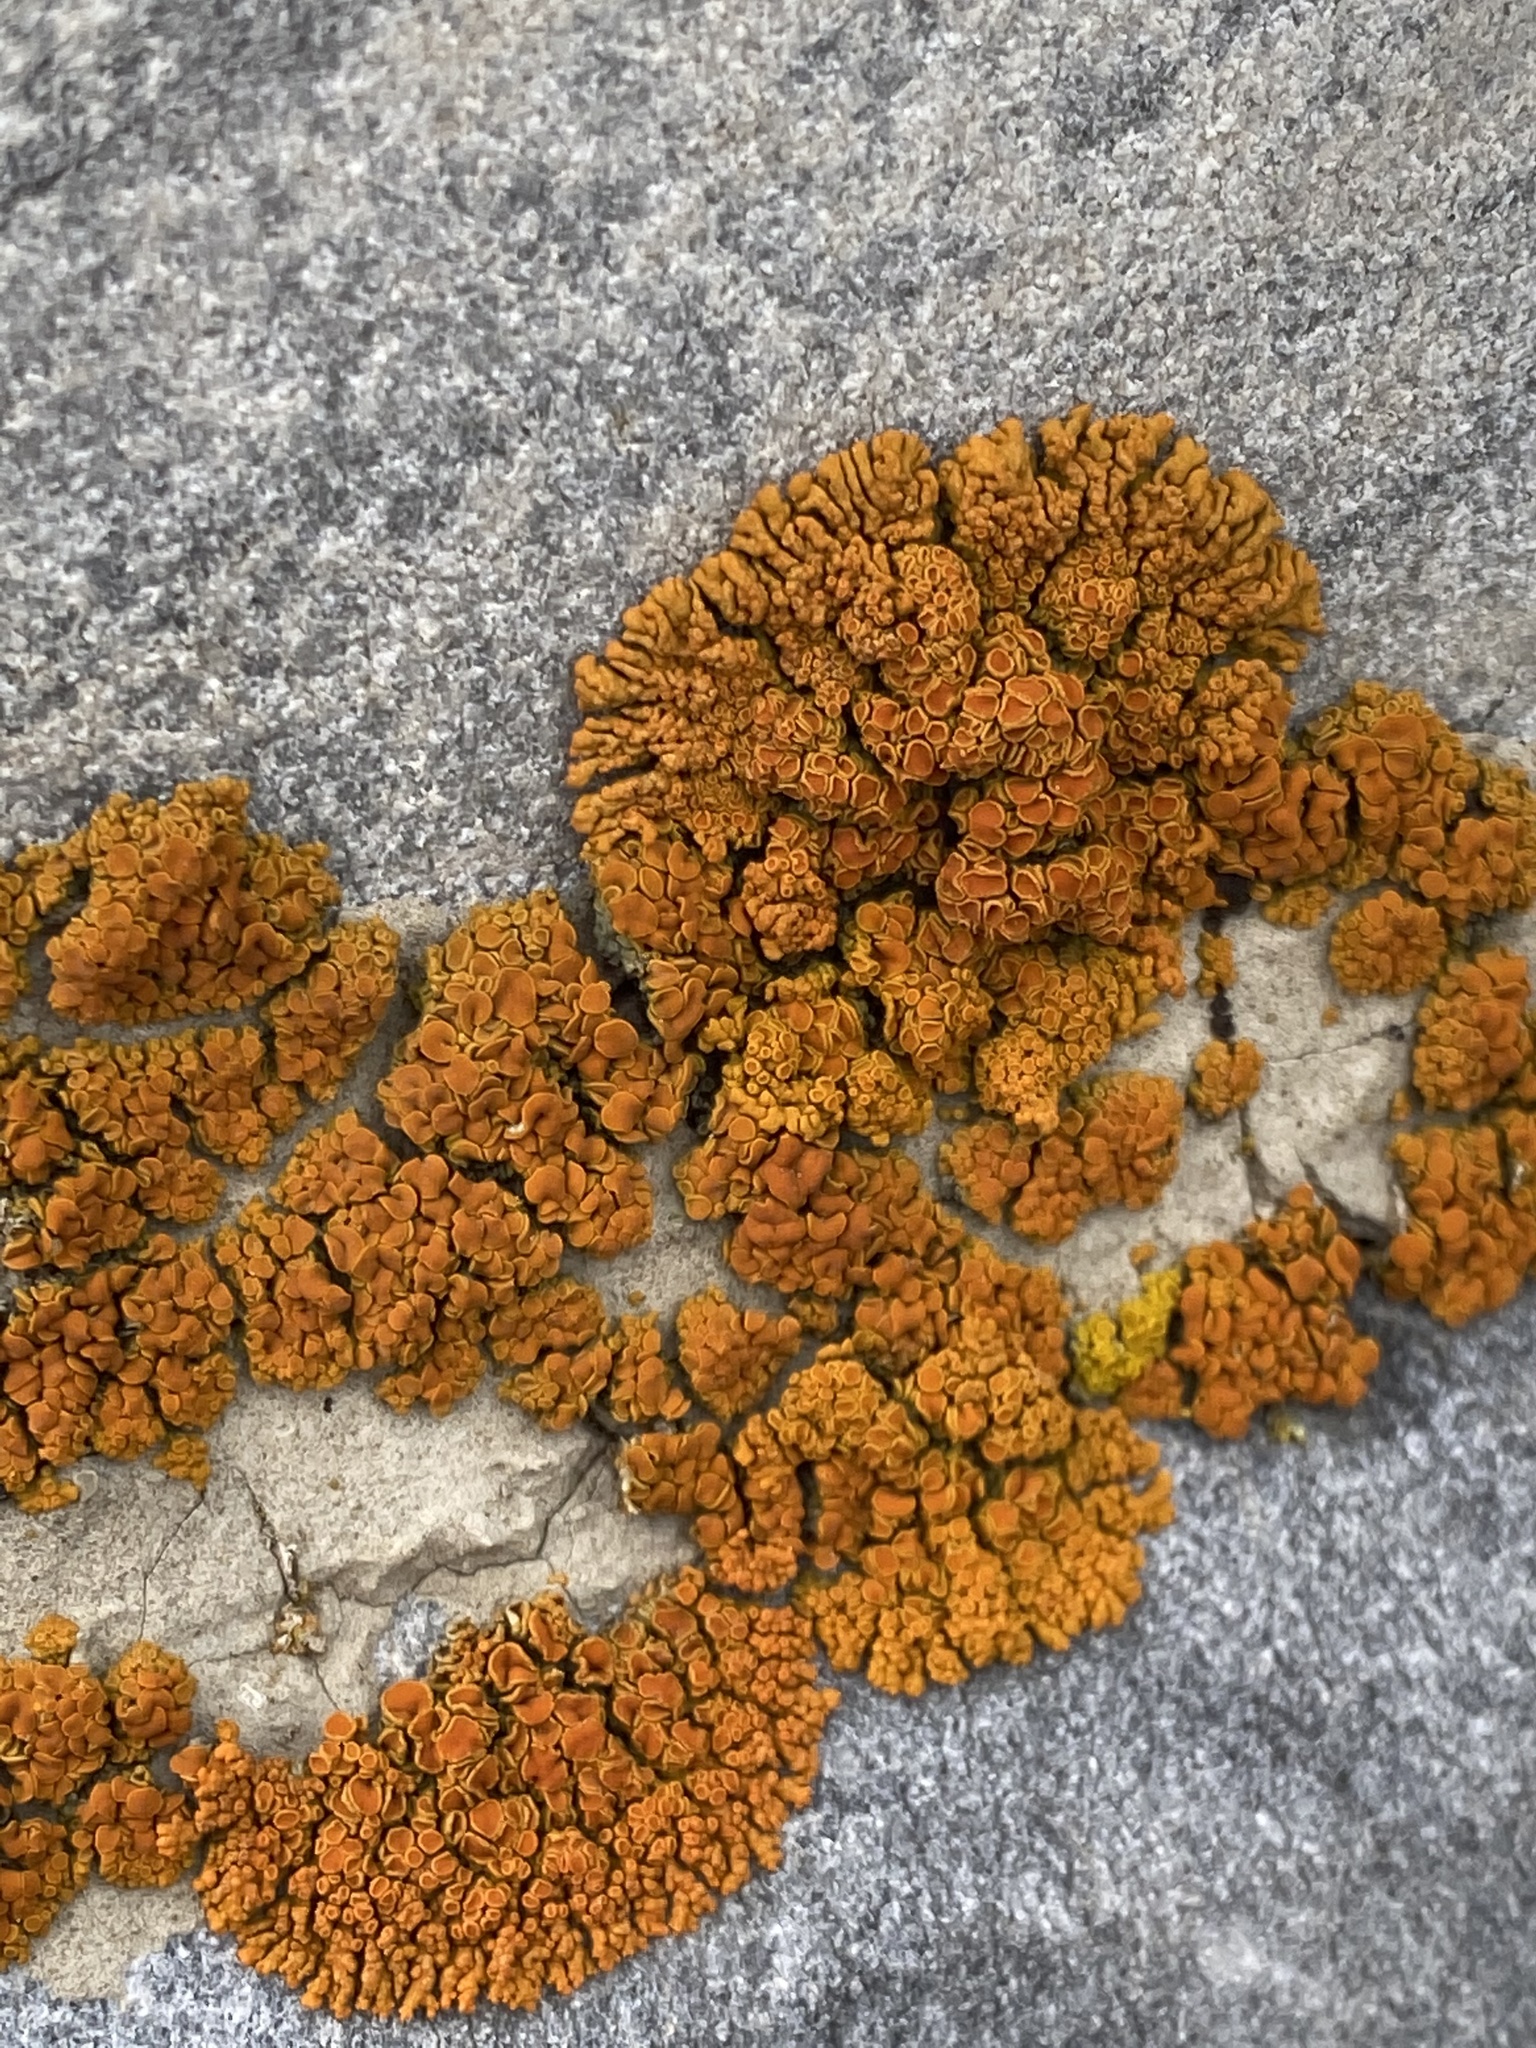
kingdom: Fungi
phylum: Ascomycota
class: Lecanoromycetes
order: Teloschistales
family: Teloschistaceae
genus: Xanthoria
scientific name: Xanthoria elegans
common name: Elegant sunburst lichen
